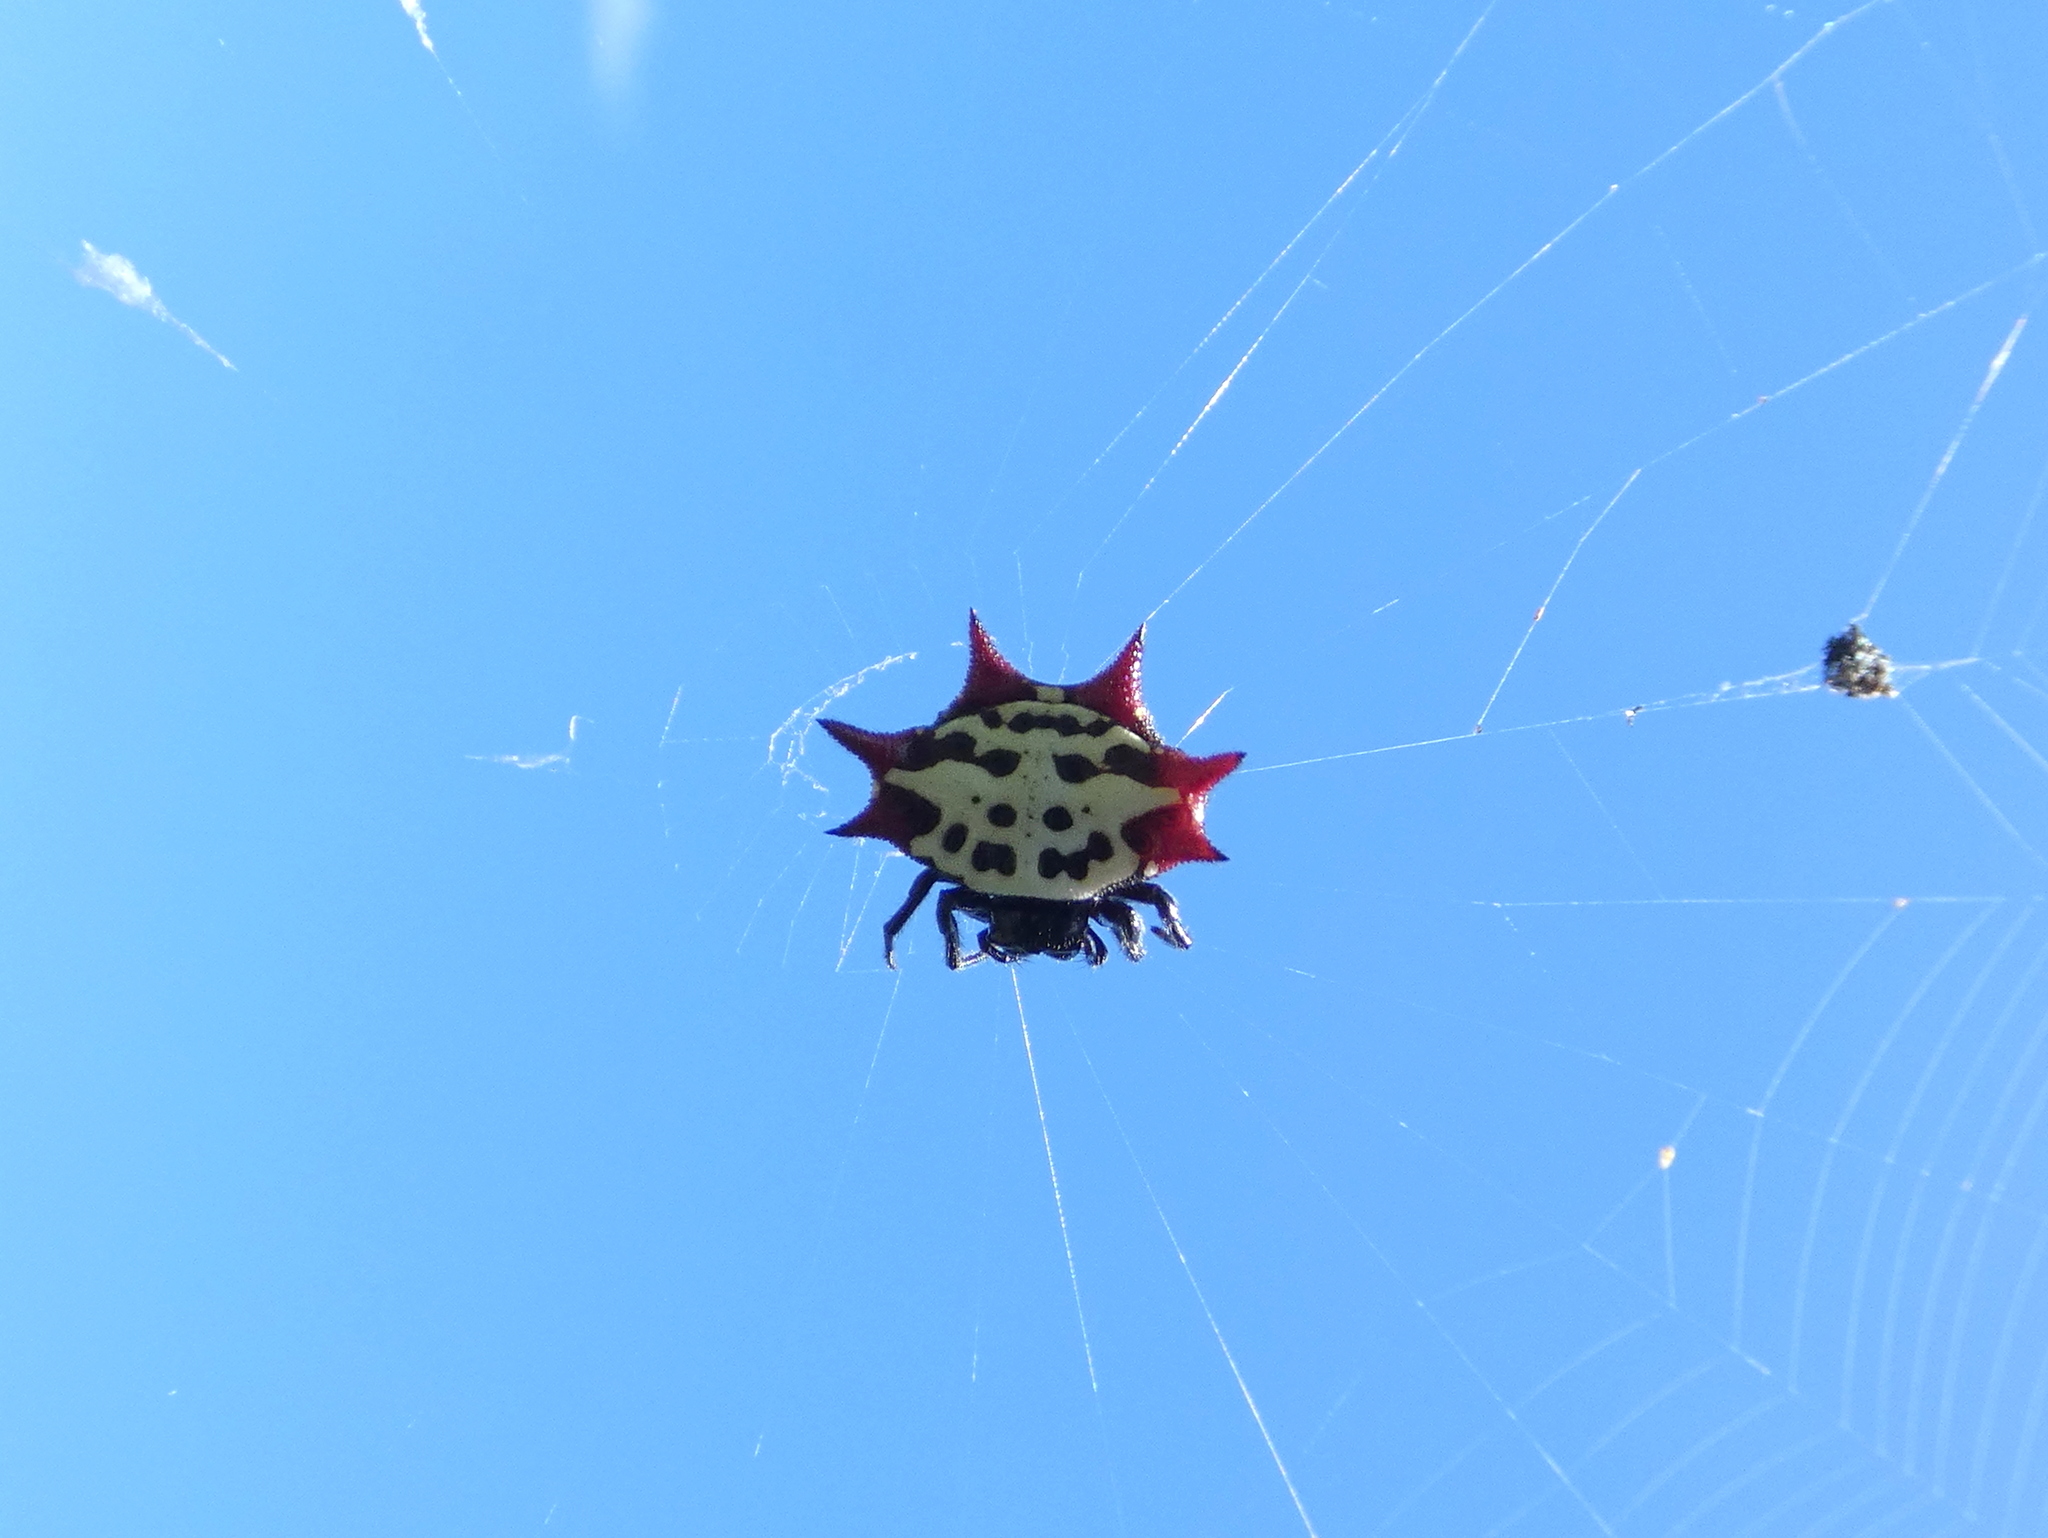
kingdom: Animalia
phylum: Arthropoda
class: Arachnida
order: Araneae
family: Araneidae
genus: Gasteracantha
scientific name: Gasteracantha cancriformis
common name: Orb weavers
